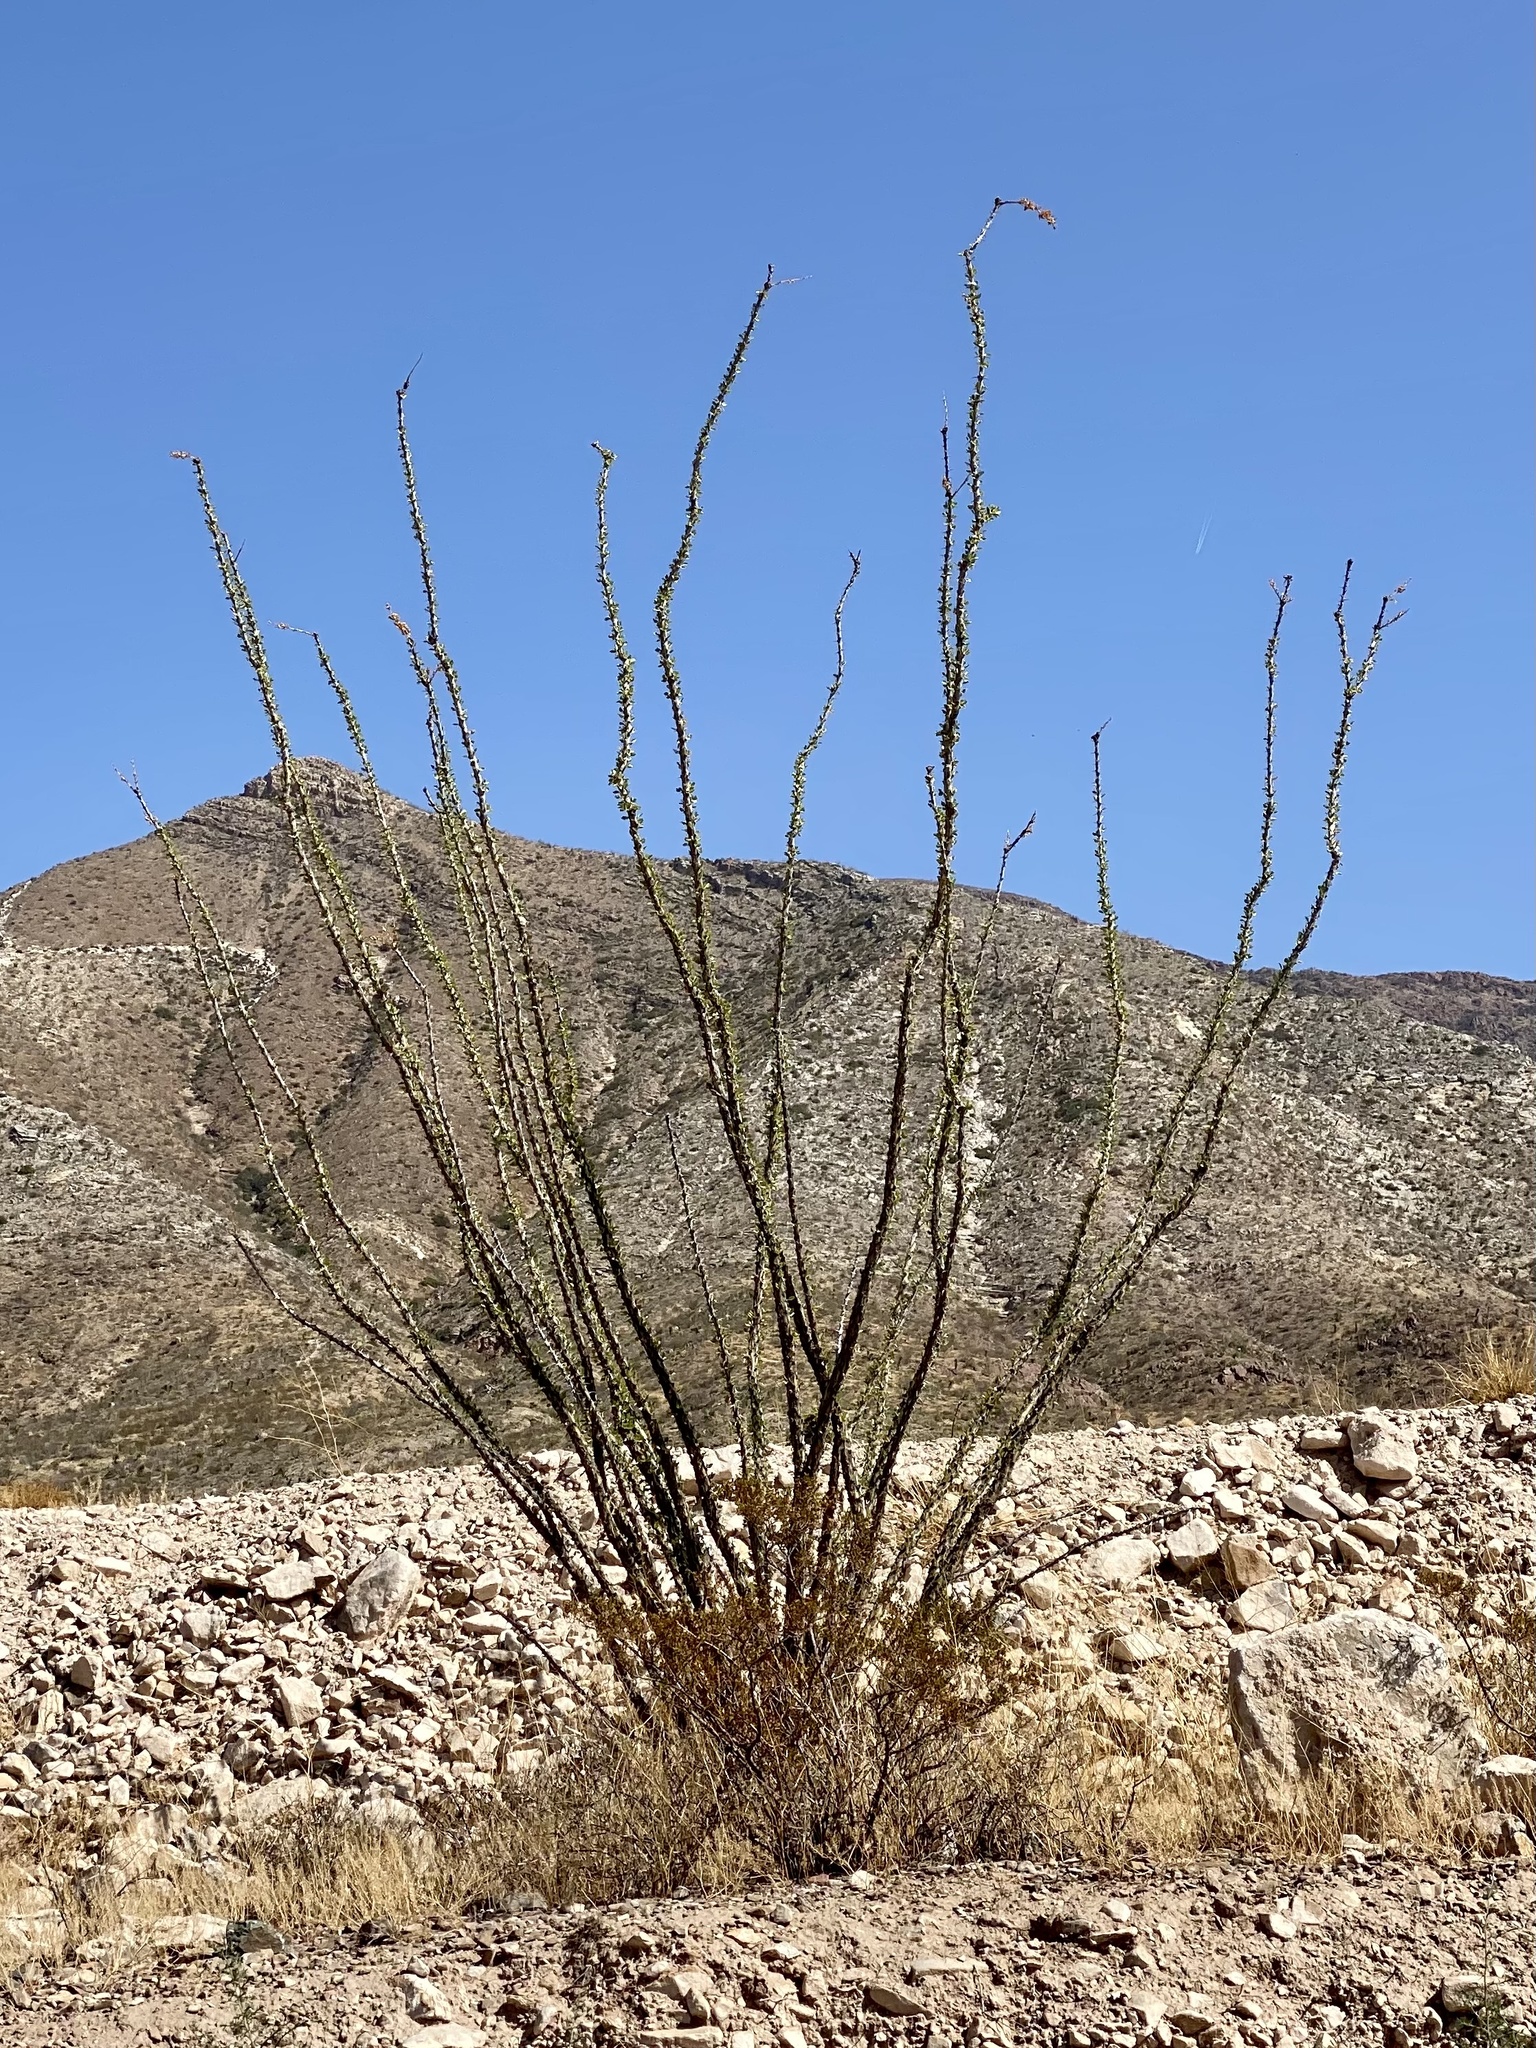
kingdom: Plantae
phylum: Tracheophyta
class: Magnoliopsida
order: Ericales
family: Fouquieriaceae
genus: Fouquieria
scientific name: Fouquieria splendens
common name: Vine-cactus
